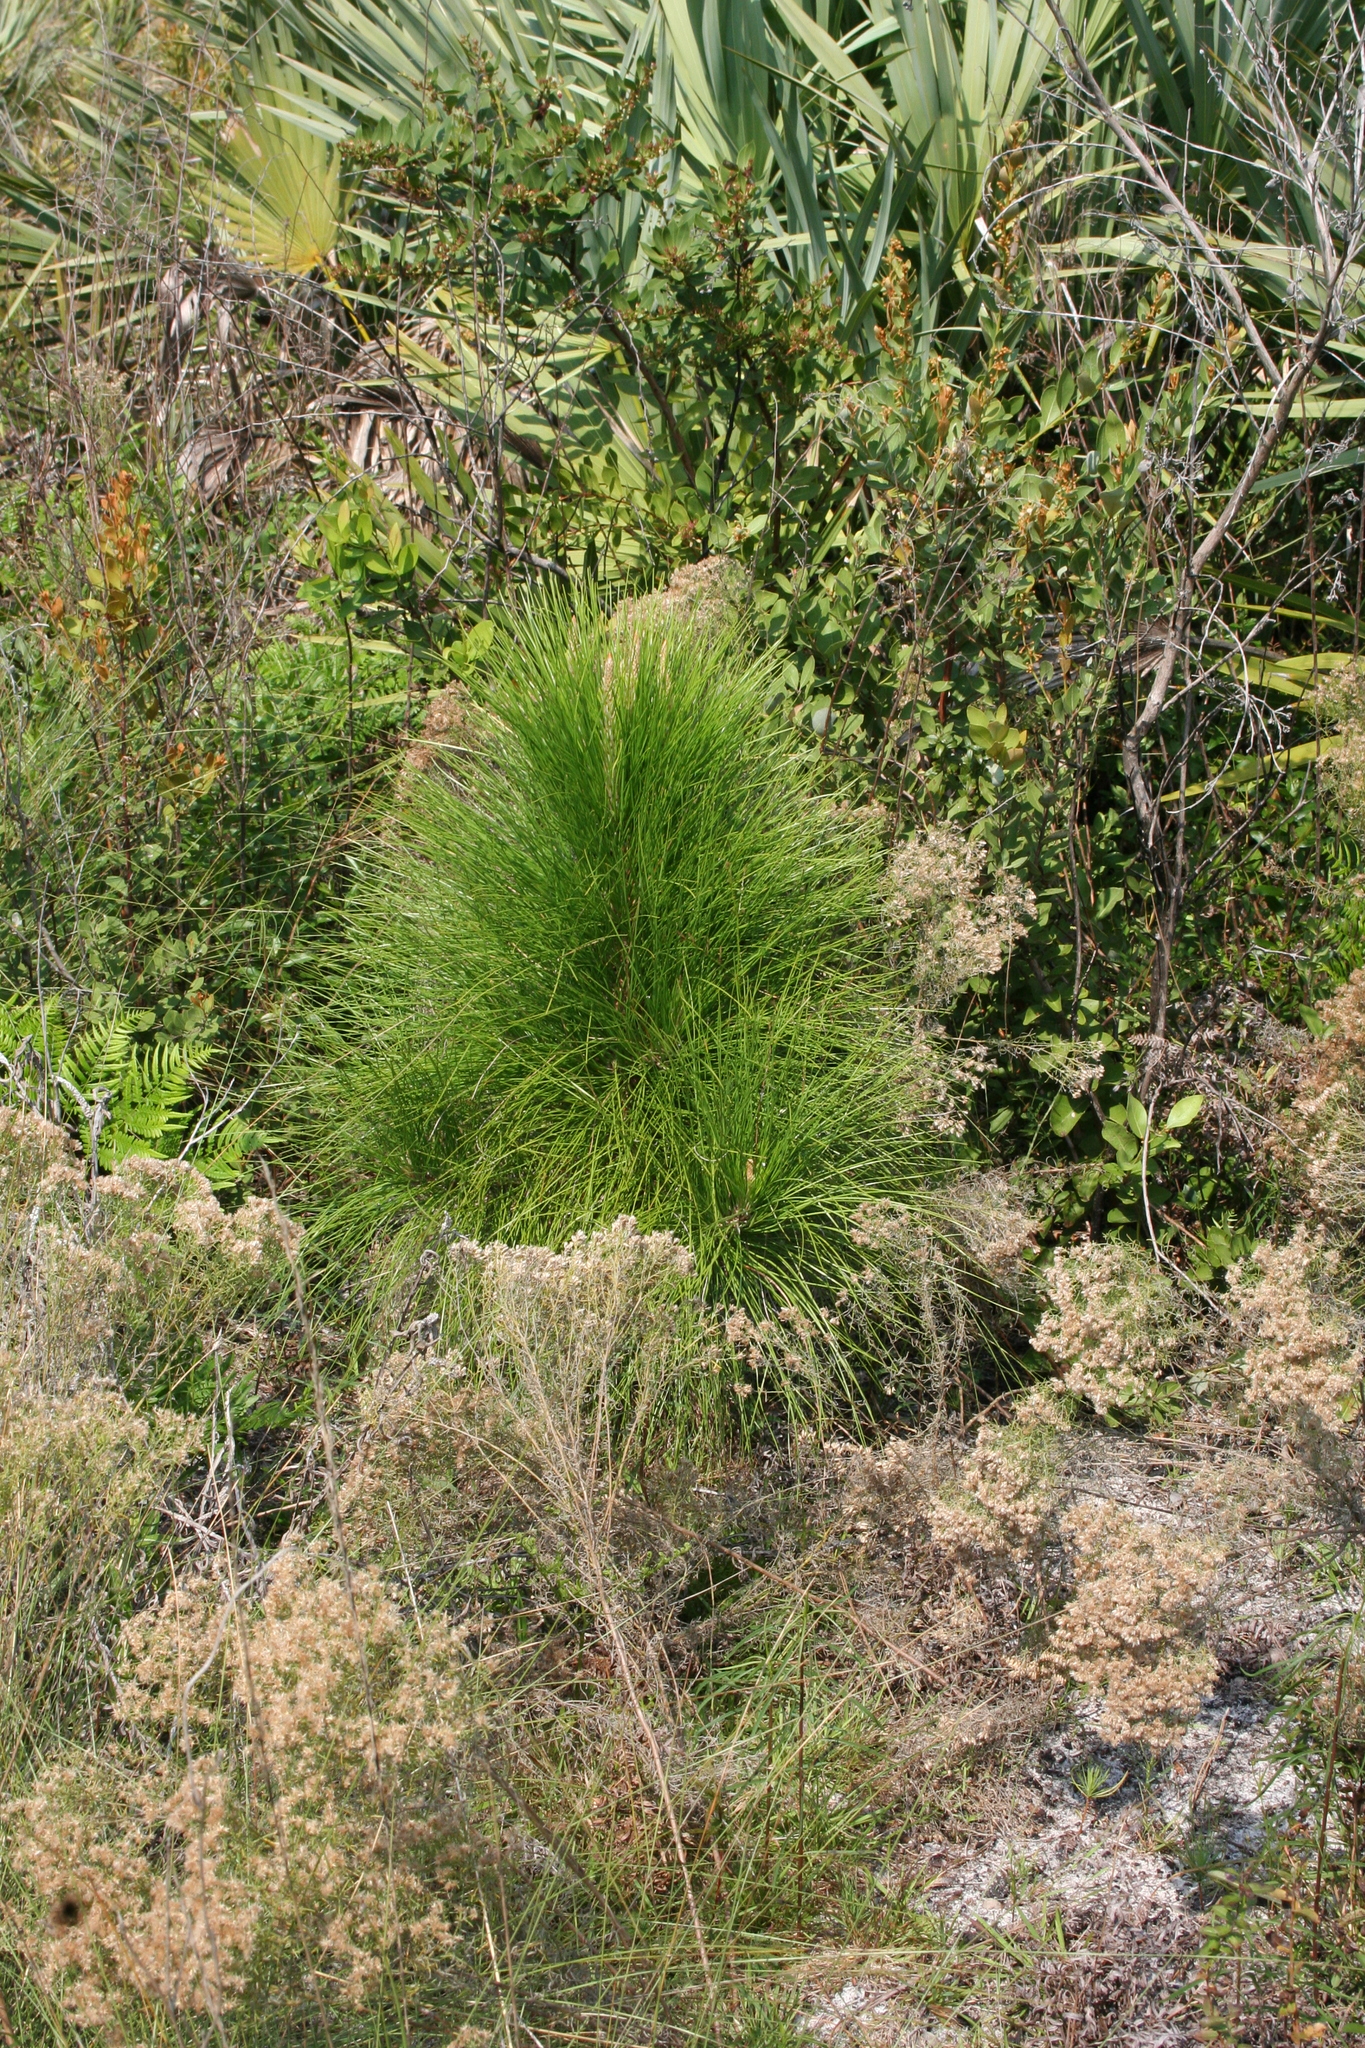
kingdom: Plantae
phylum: Tracheophyta
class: Pinopsida
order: Pinales
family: Pinaceae
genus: Pinus
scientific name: Pinus elliottii
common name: Slash pine
